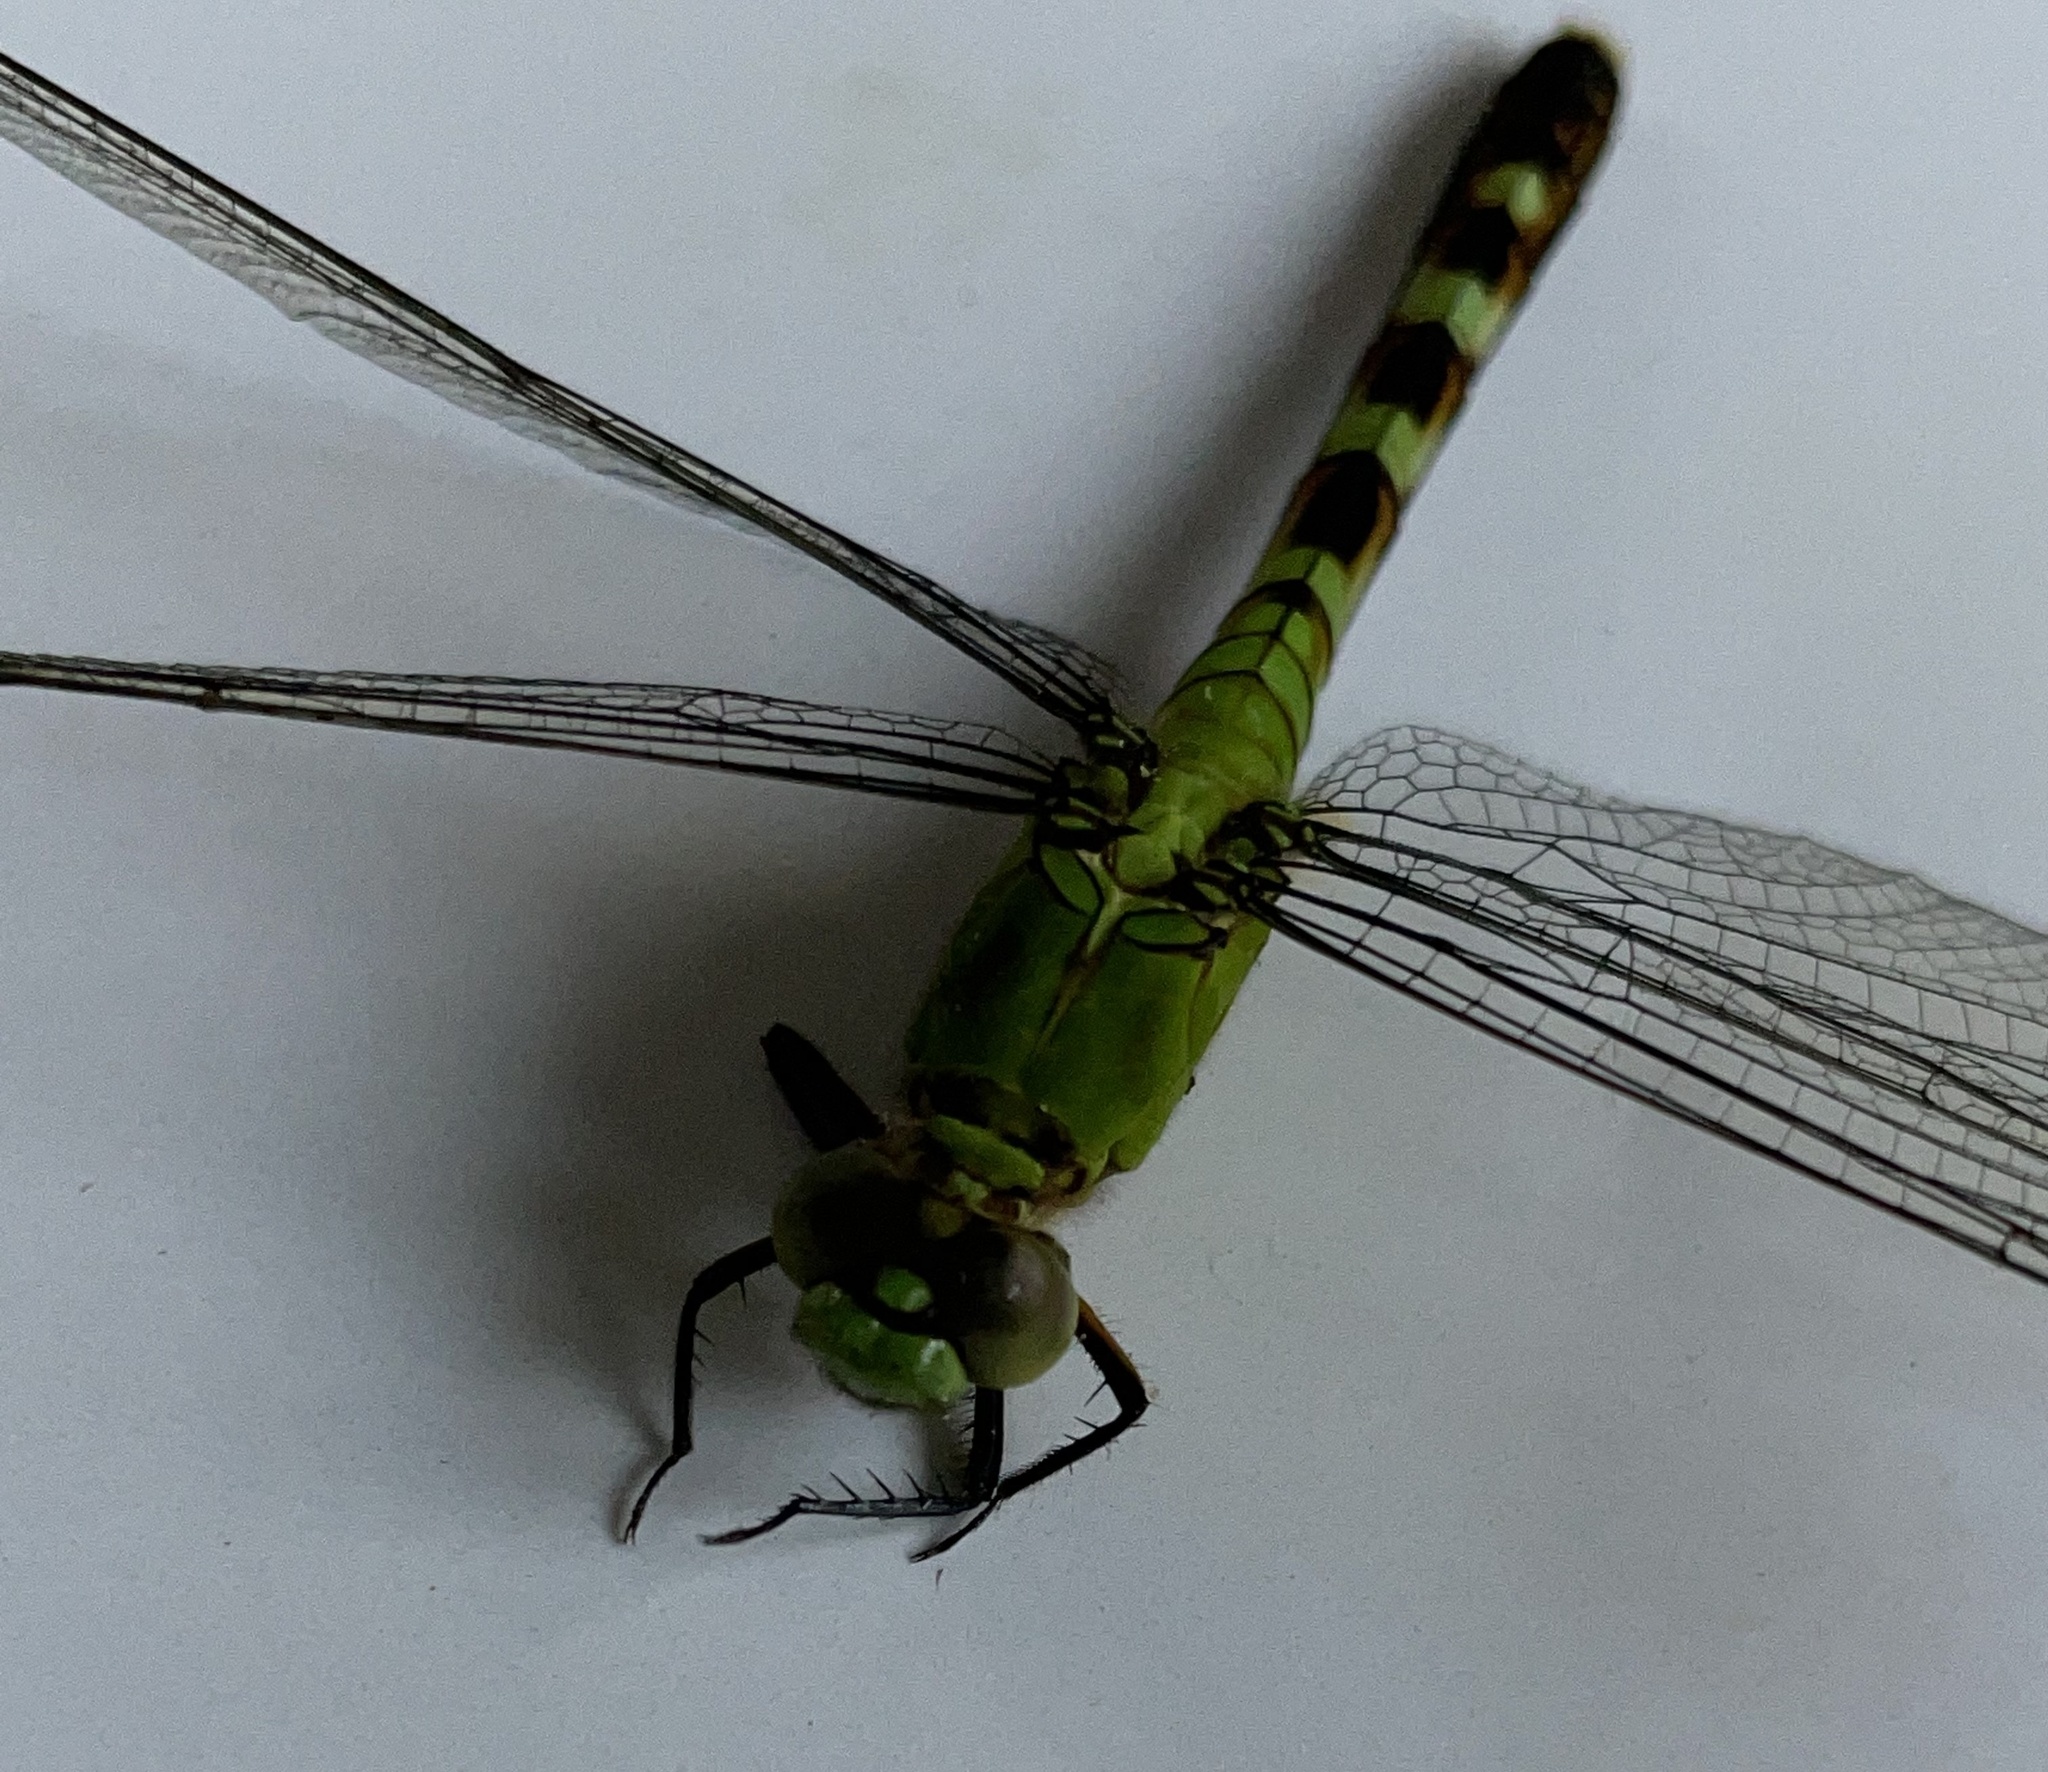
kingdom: Animalia
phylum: Arthropoda
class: Insecta
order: Odonata
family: Libellulidae
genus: Erythemis
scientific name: Erythemis simplicicollis
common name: Eastern pondhawk
